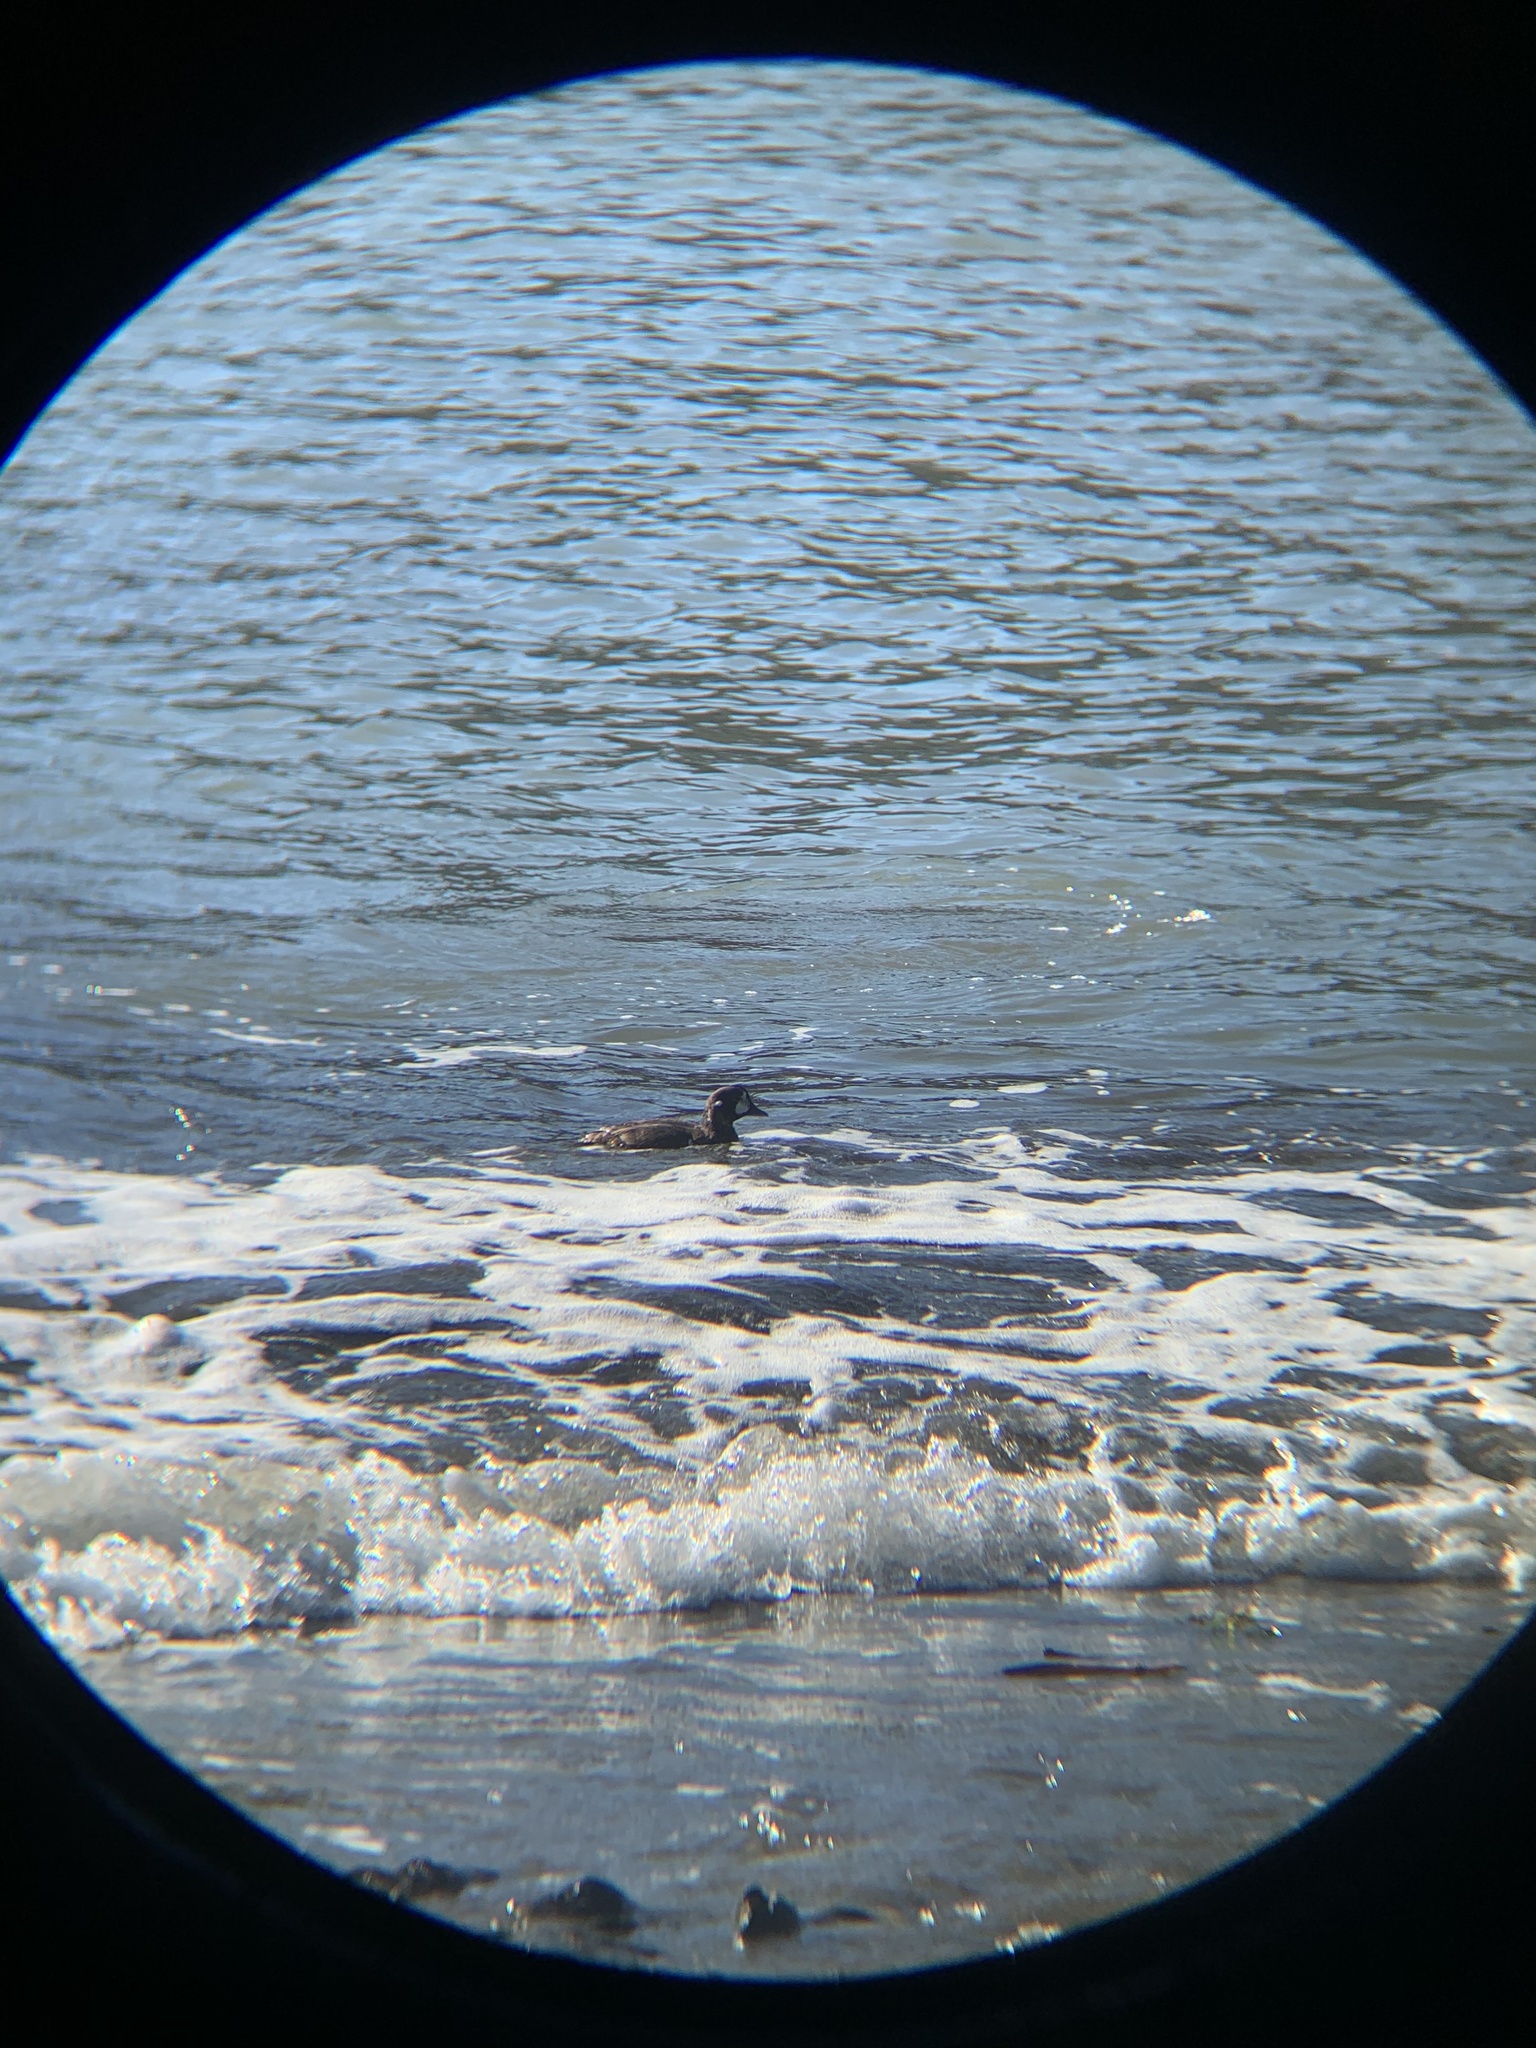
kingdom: Animalia
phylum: Chordata
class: Aves
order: Anseriformes
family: Anatidae
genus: Histrionicus
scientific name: Histrionicus histrionicus
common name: Harlequin duck
